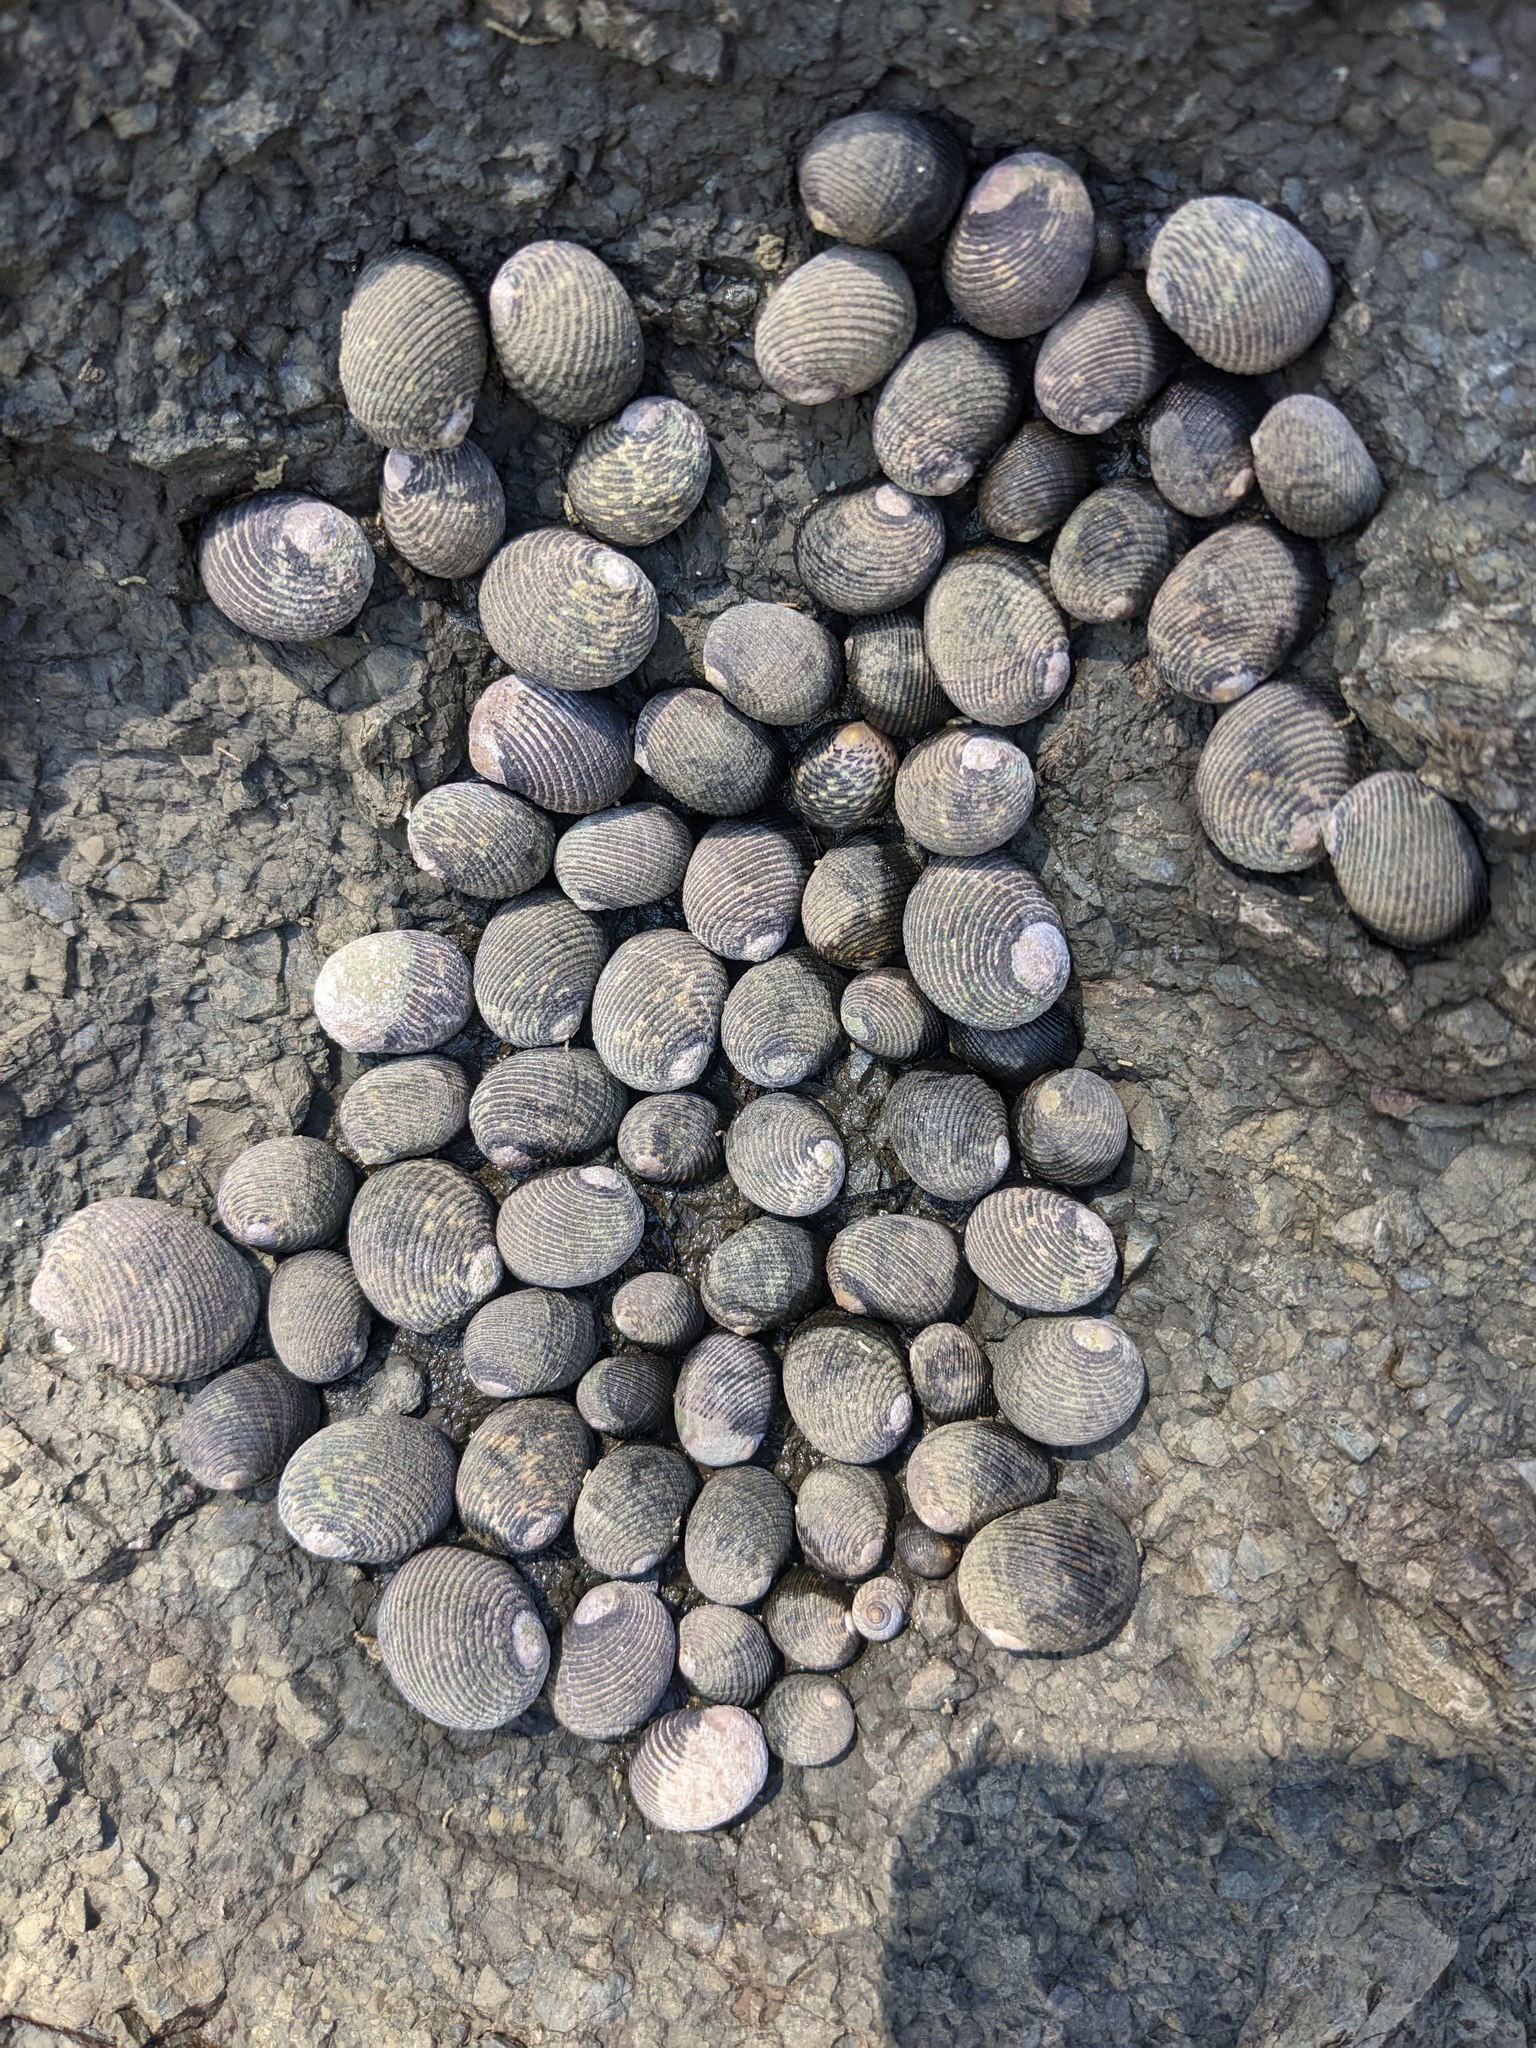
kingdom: Animalia
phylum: Mollusca
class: Gastropoda
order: Cycloneritida
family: Neritidae
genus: Nerita
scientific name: Nerita scabricosta
